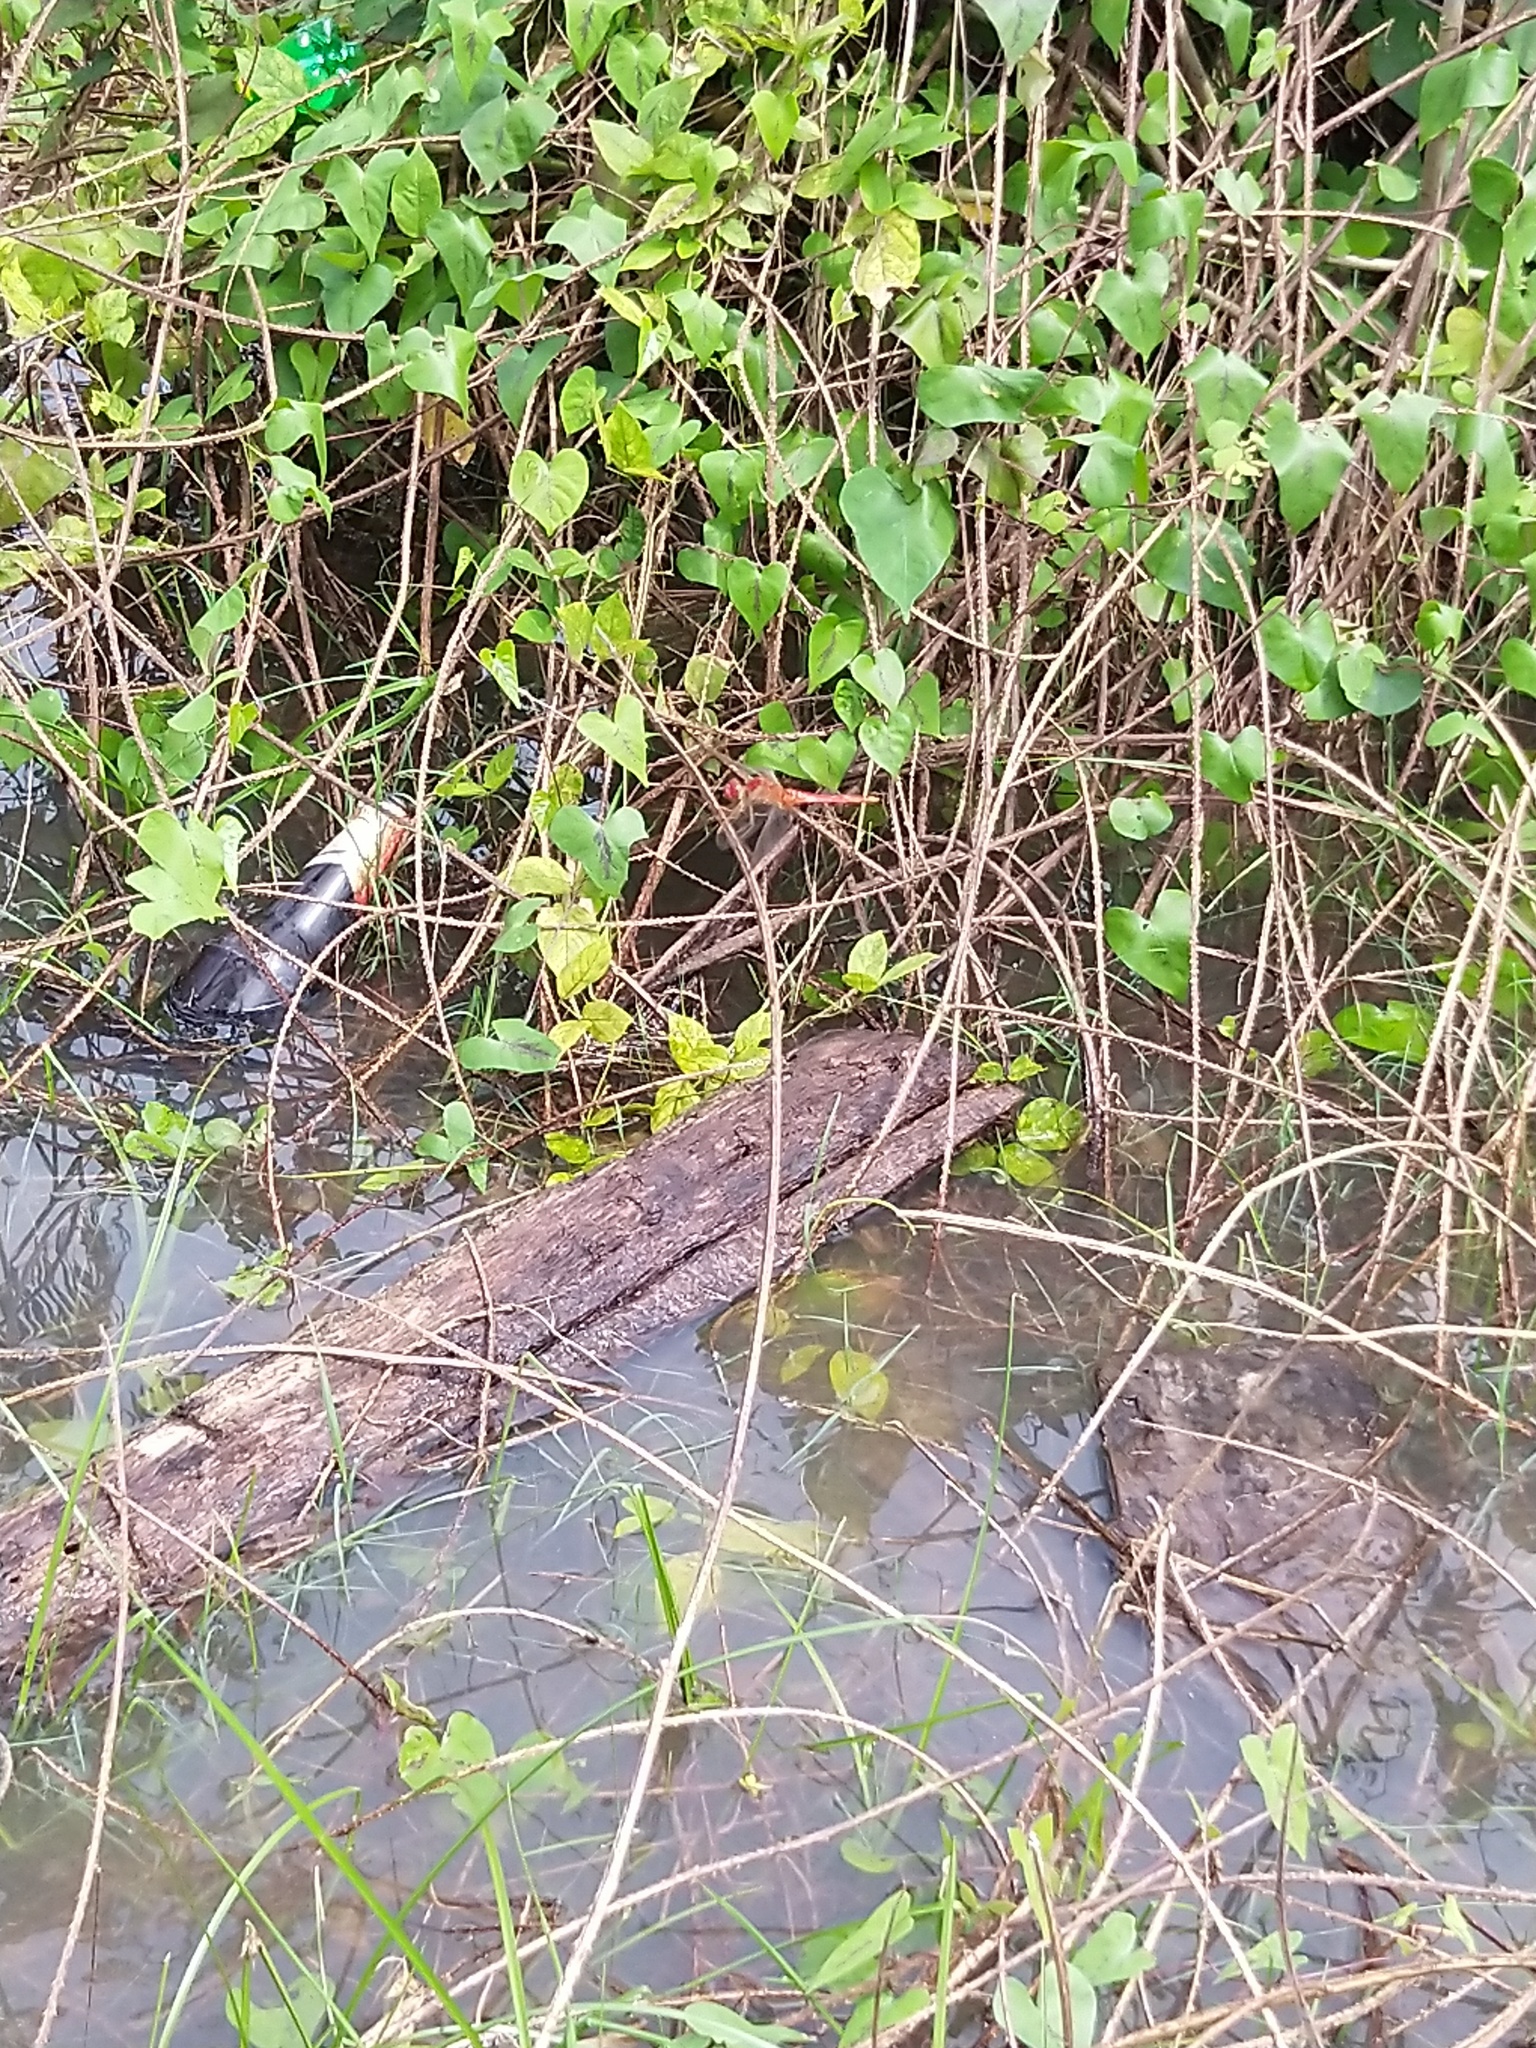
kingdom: Animalia
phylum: Arthropoda
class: Insecta
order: Odonata
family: Libellulidae
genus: Crocothemis
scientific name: Crocothemis servilia
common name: Scarlet skimmer
